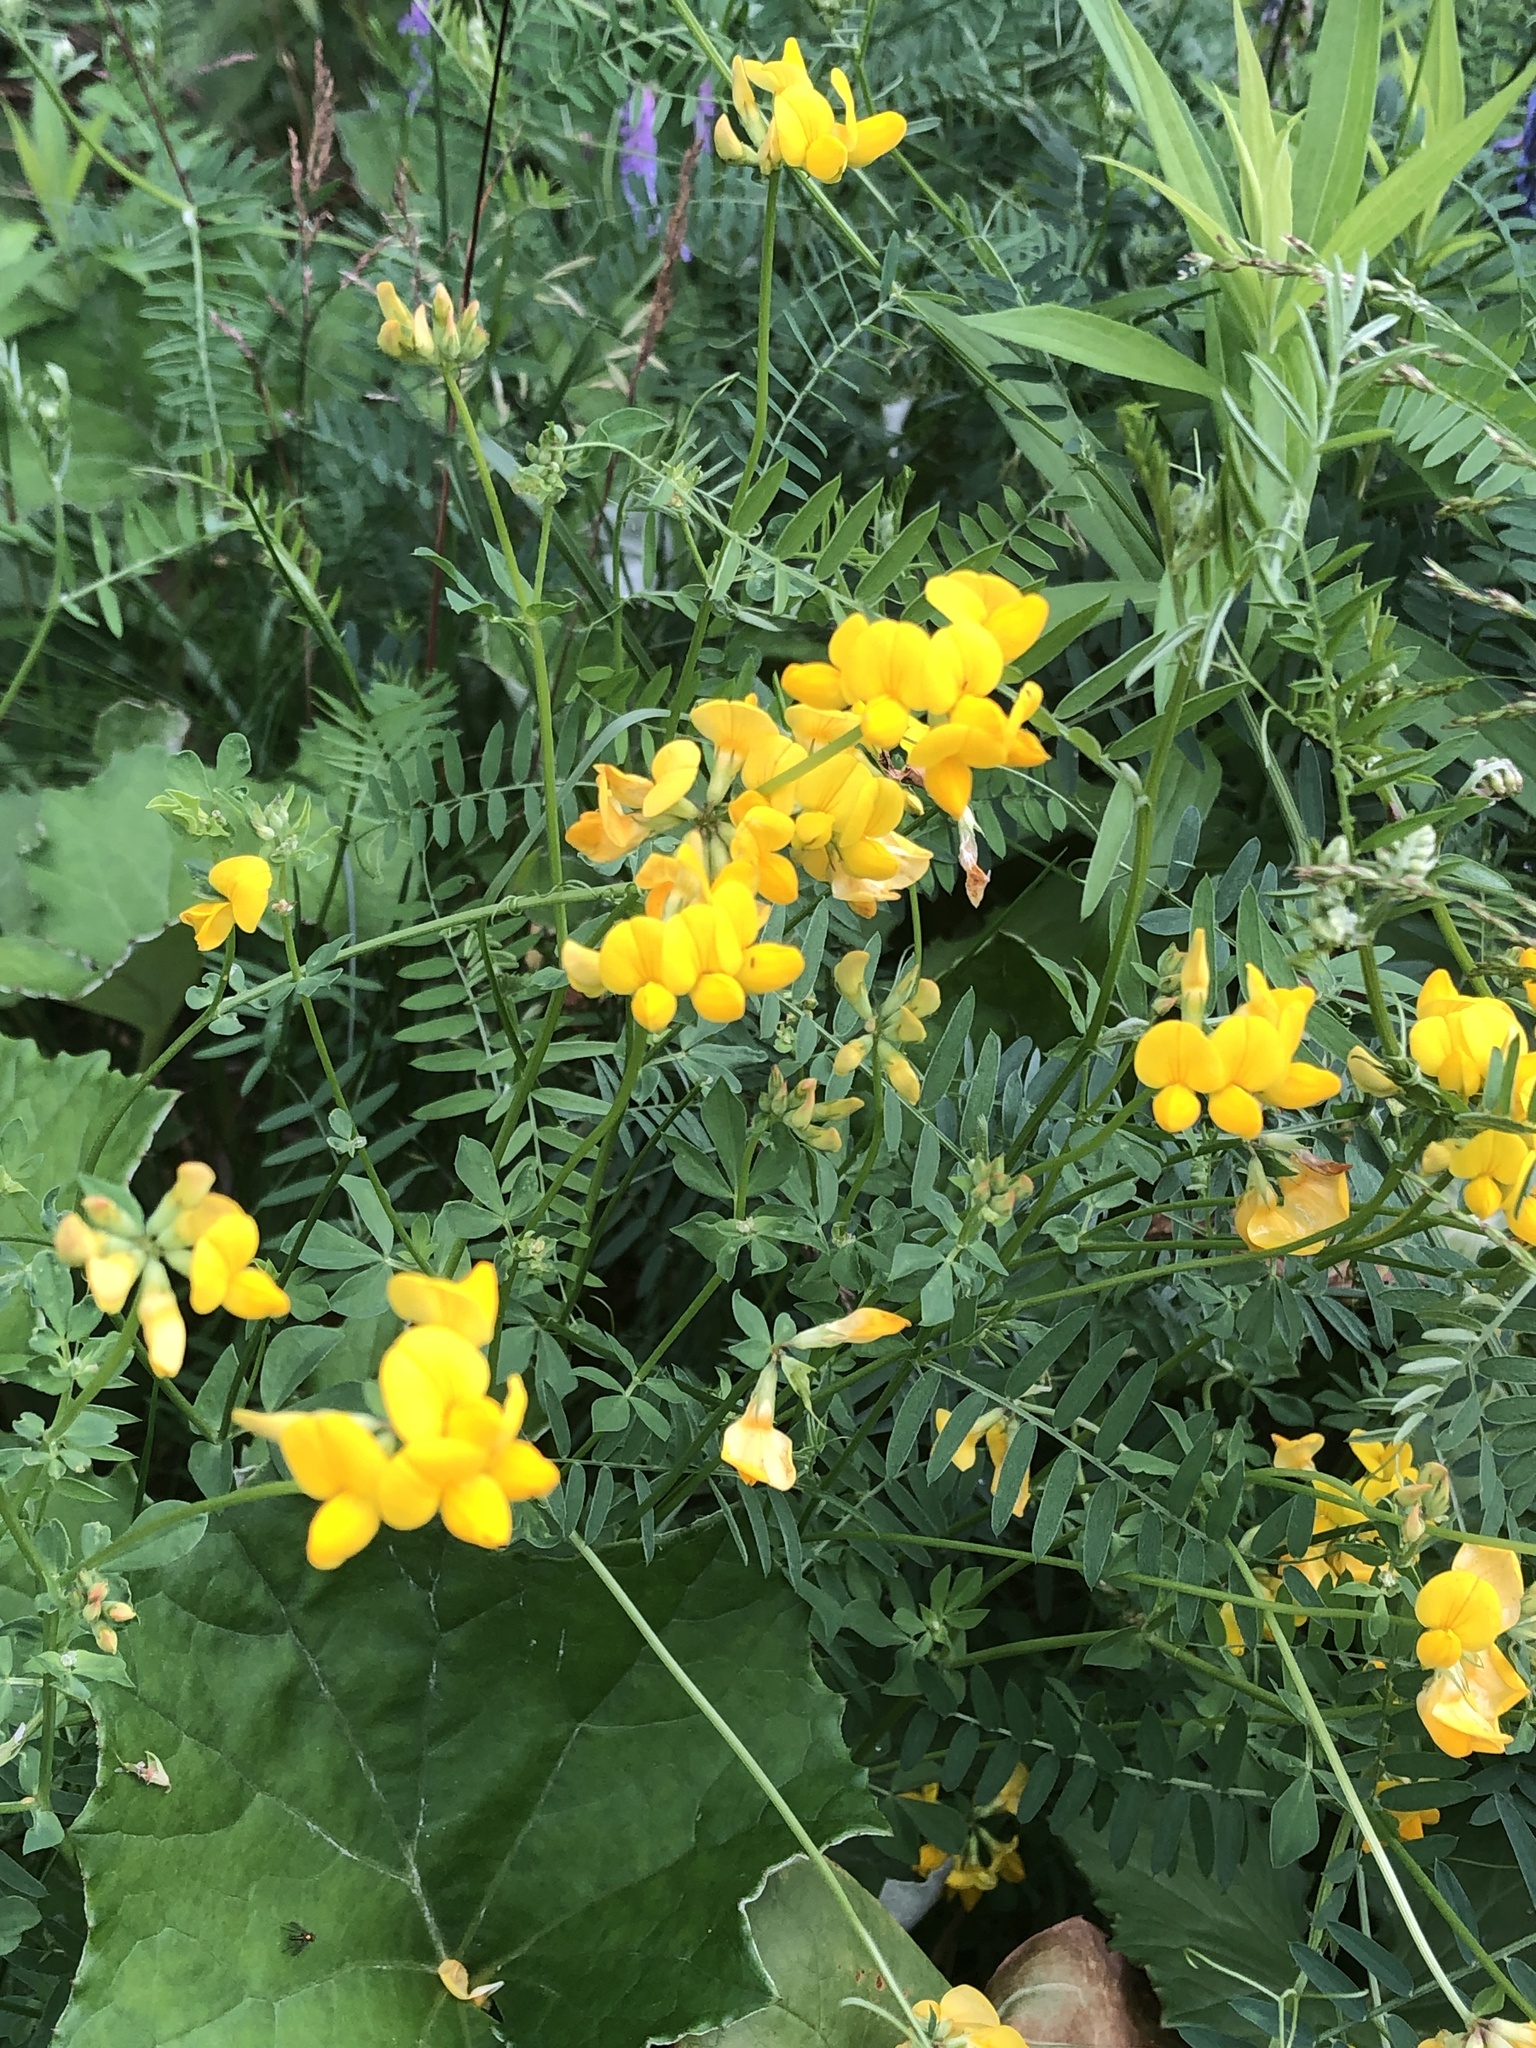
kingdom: Plantae
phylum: Tracheophyta
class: Magnoliopsida
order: Fabales
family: Fabaceae
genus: Lotus
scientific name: Lotus corniculatus
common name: Common bird's-foot-trefoil
